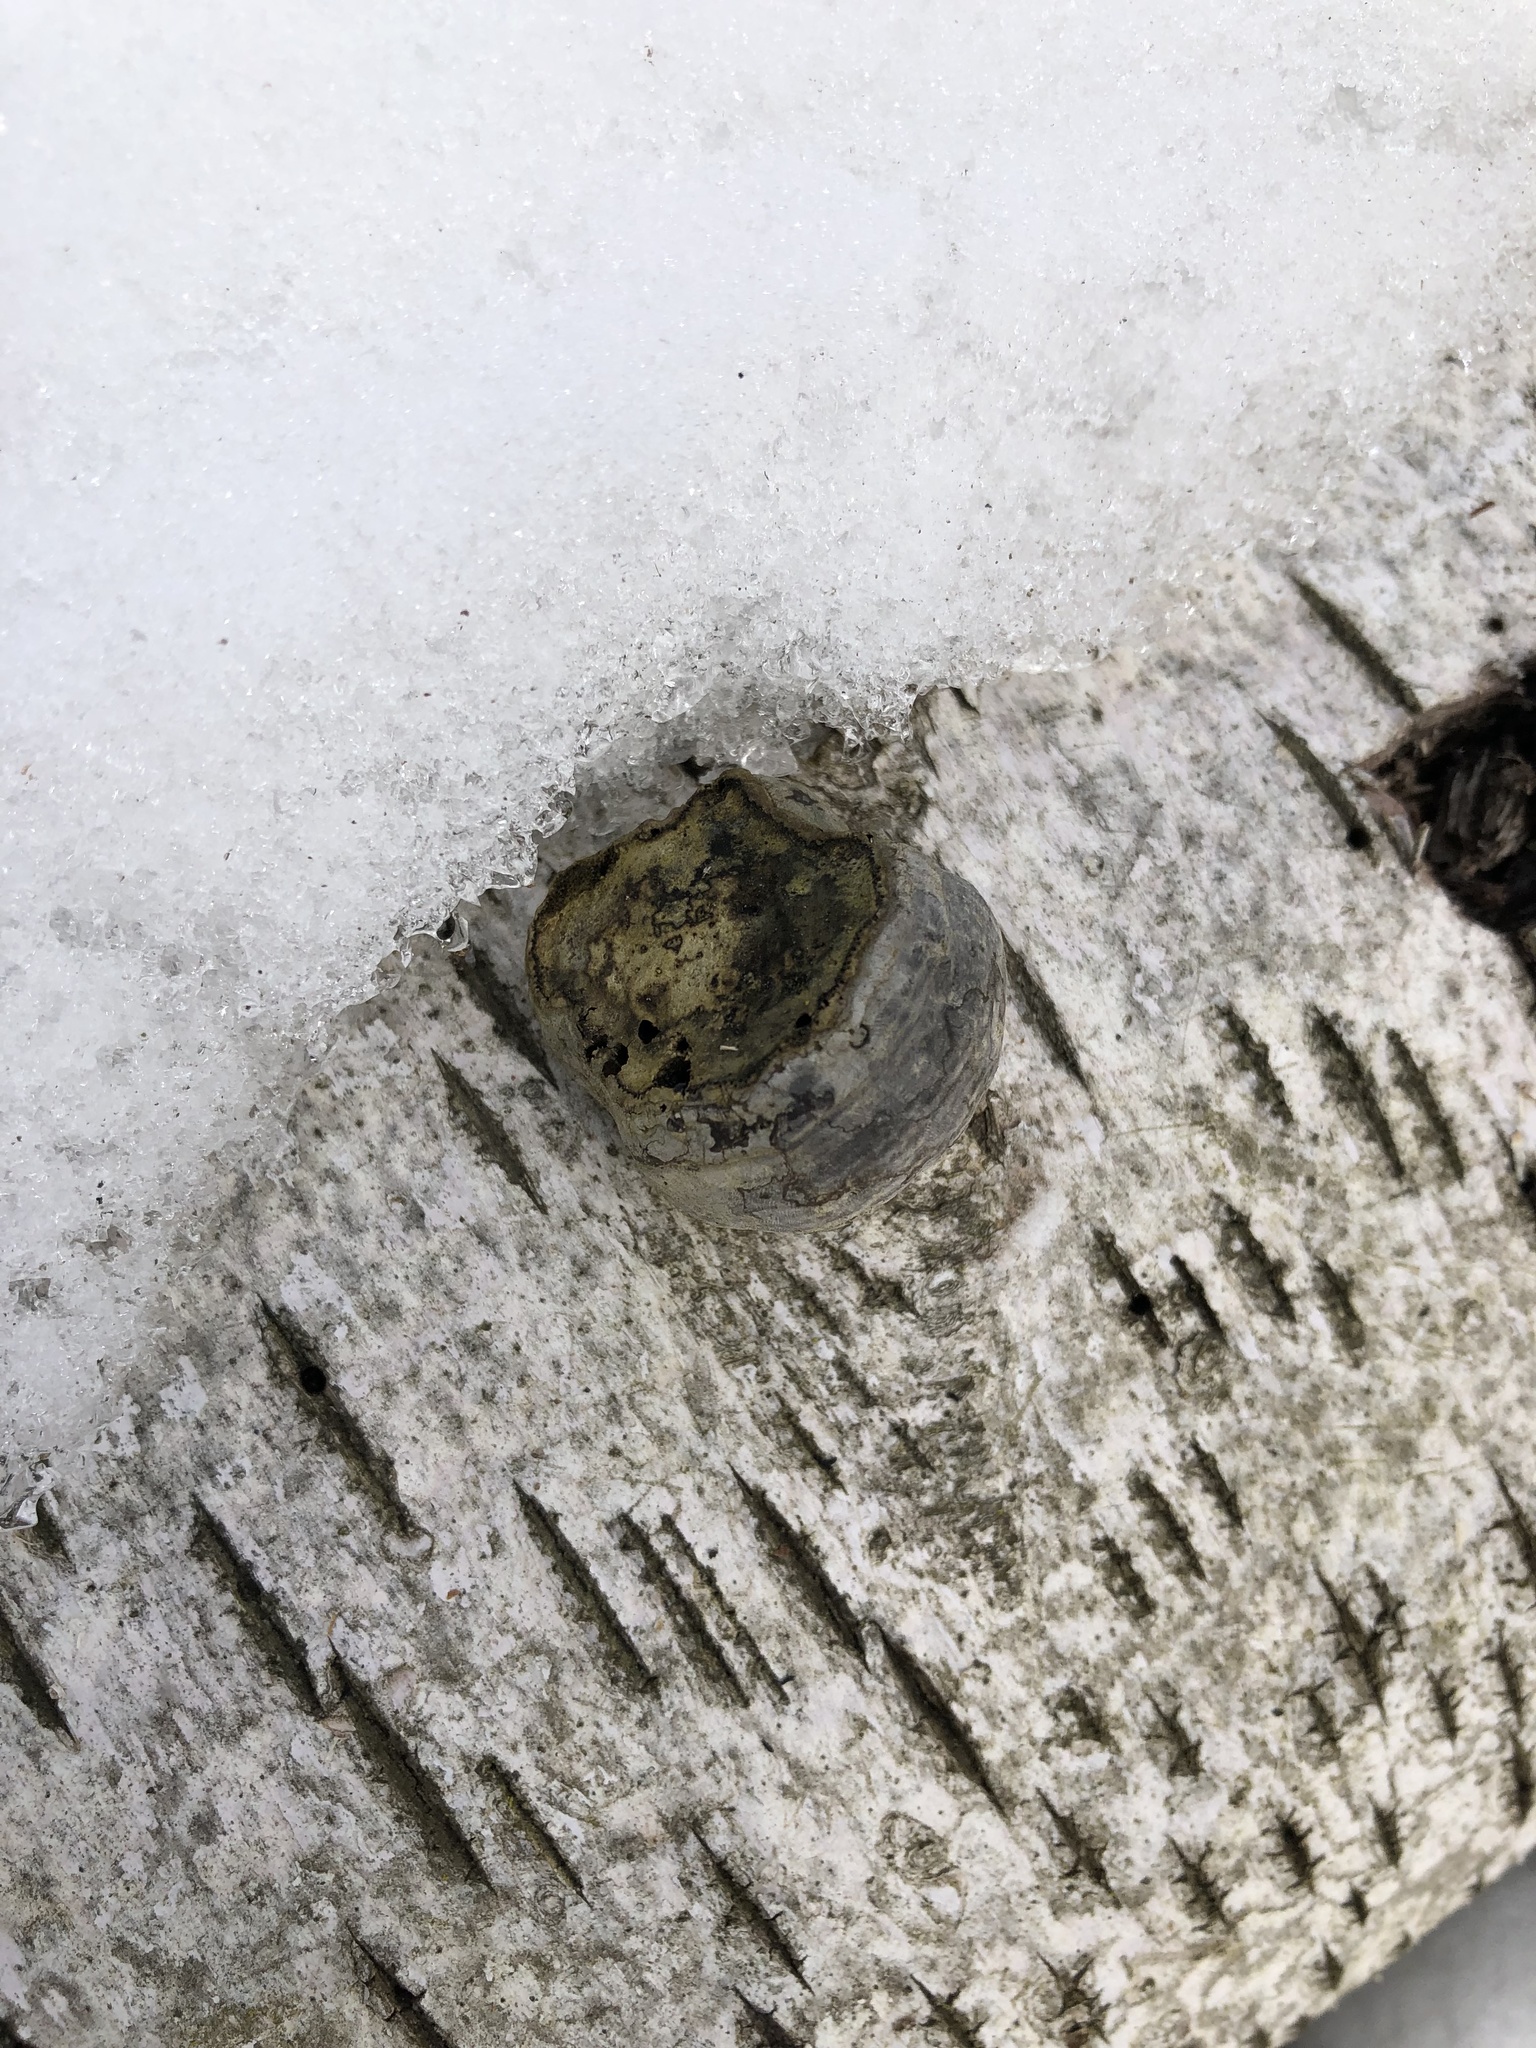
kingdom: Fungi
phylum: Basidiomycota
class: Agaricomycetes
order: Polyporales
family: Polyporaceae
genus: Fomes
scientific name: Fomes fomentarius
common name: Hoof fungus
